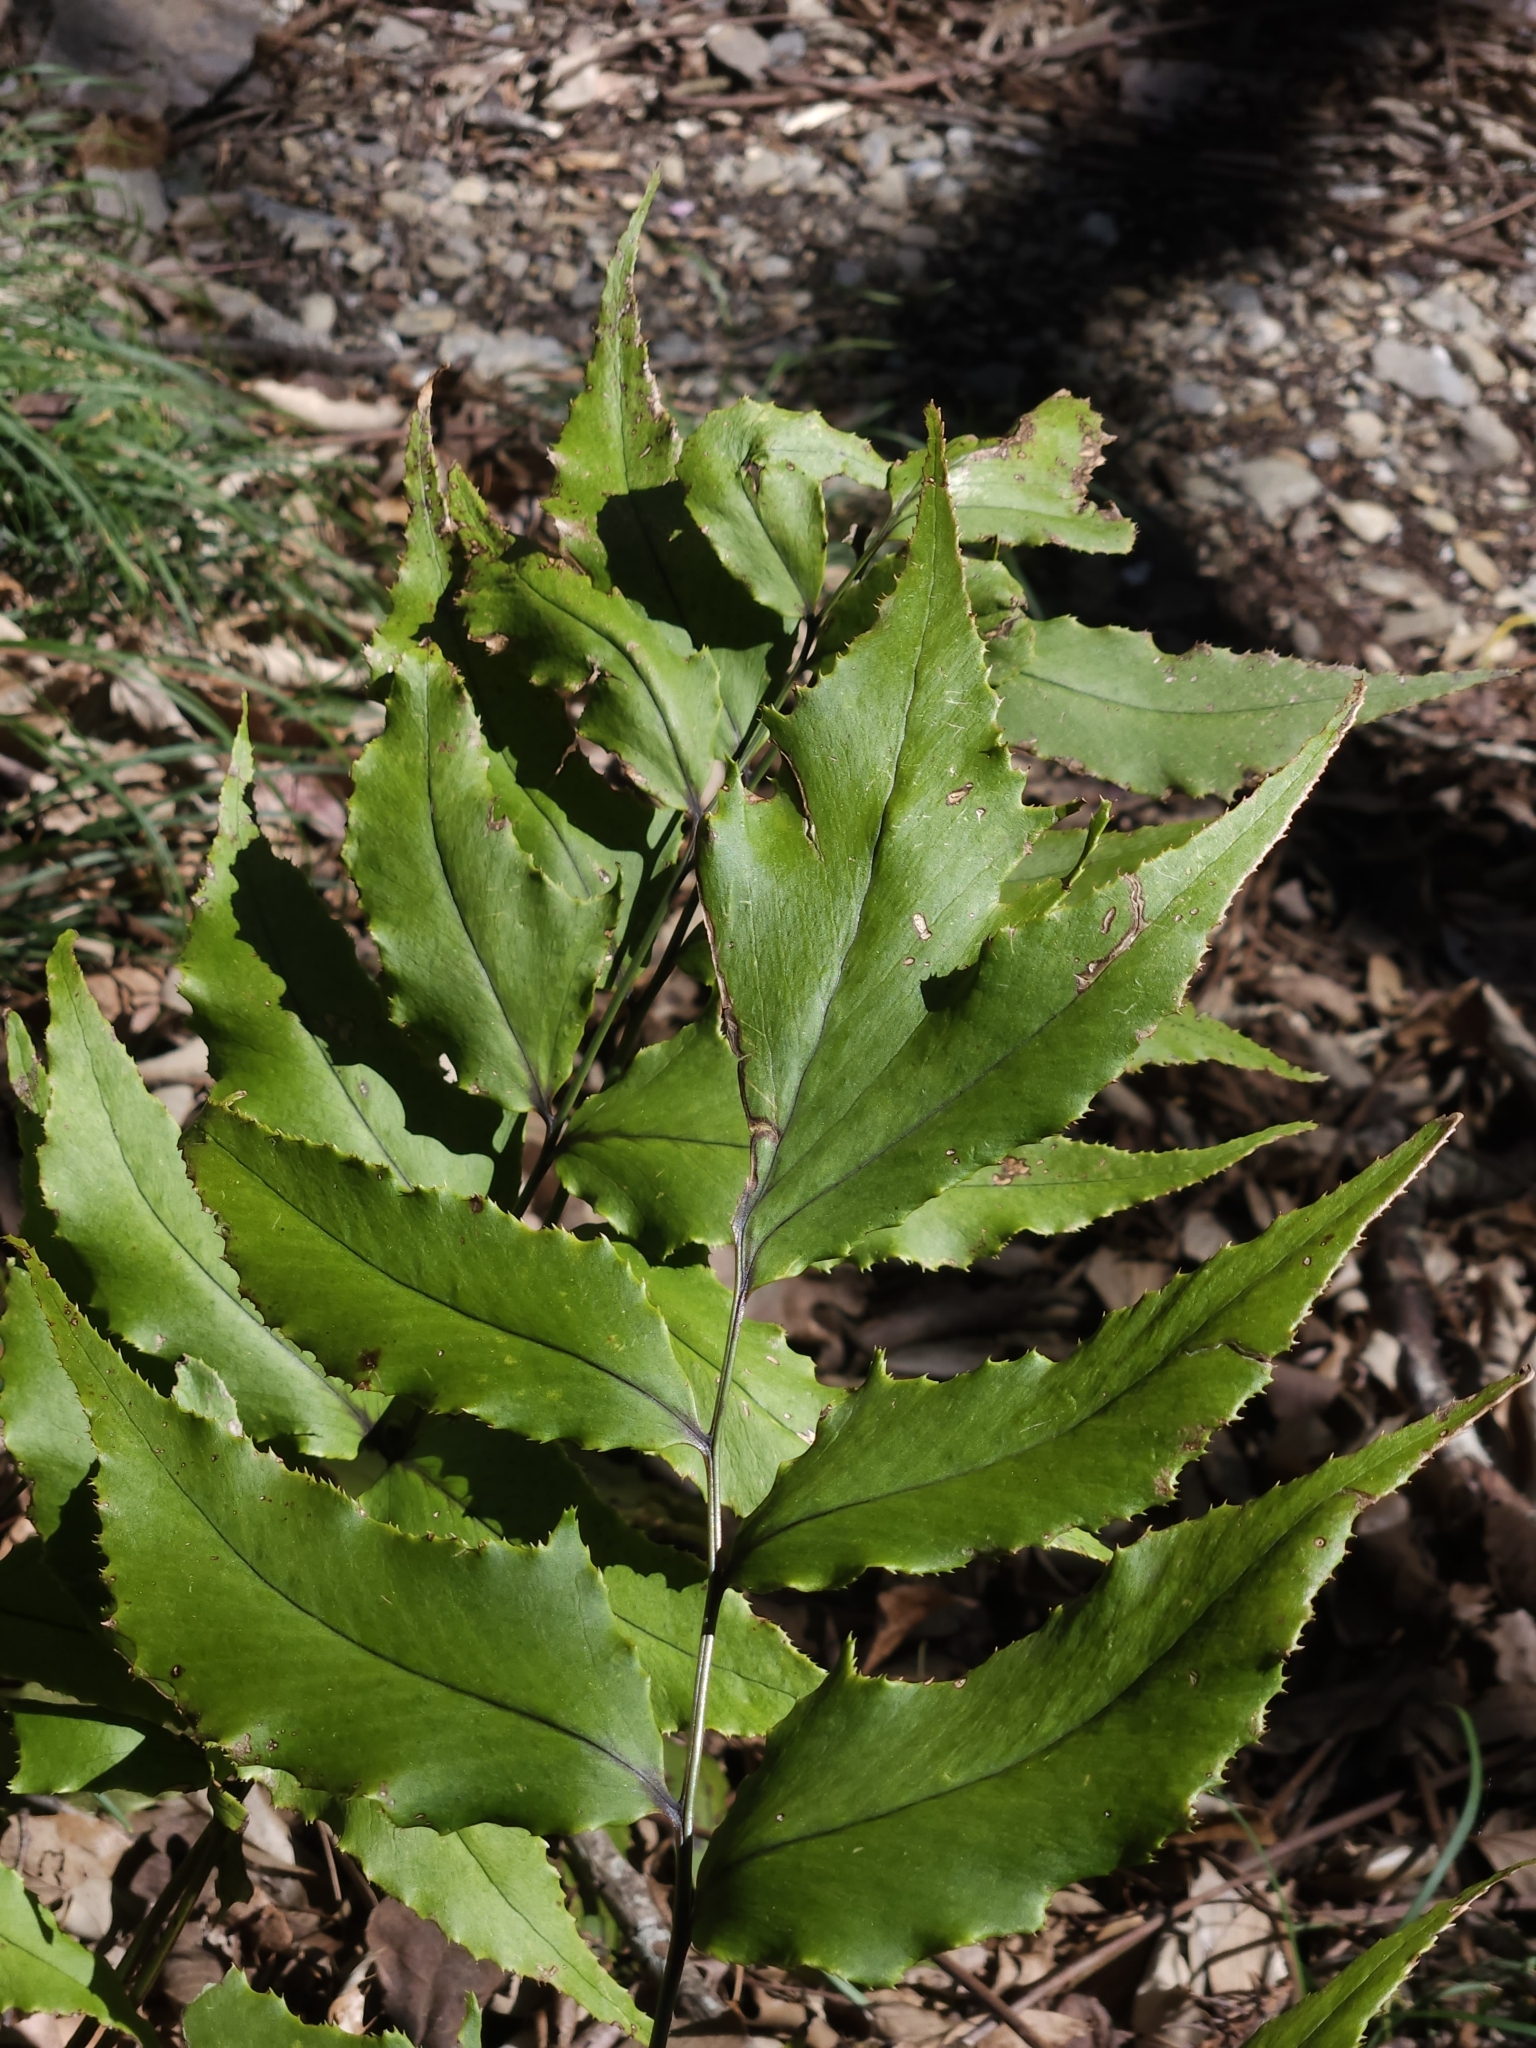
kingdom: Plantae
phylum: Tracheophyta
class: Polypodiopsida
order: Polypodiales
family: Dryopteridaceae
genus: Cyrtomium
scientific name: Cyrtomium caryotideum
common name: Asiatic holly fern
